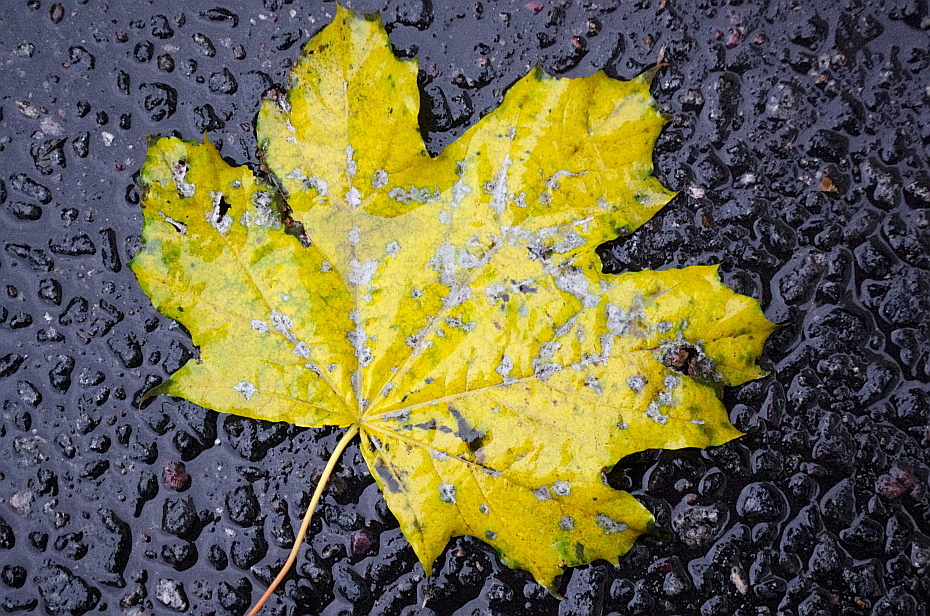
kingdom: Fungi
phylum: Ascomycota
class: Leotiomycetes
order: Helotiales
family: Erysiphaceae
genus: Sawadaea
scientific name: Sawadaea tulasnei
